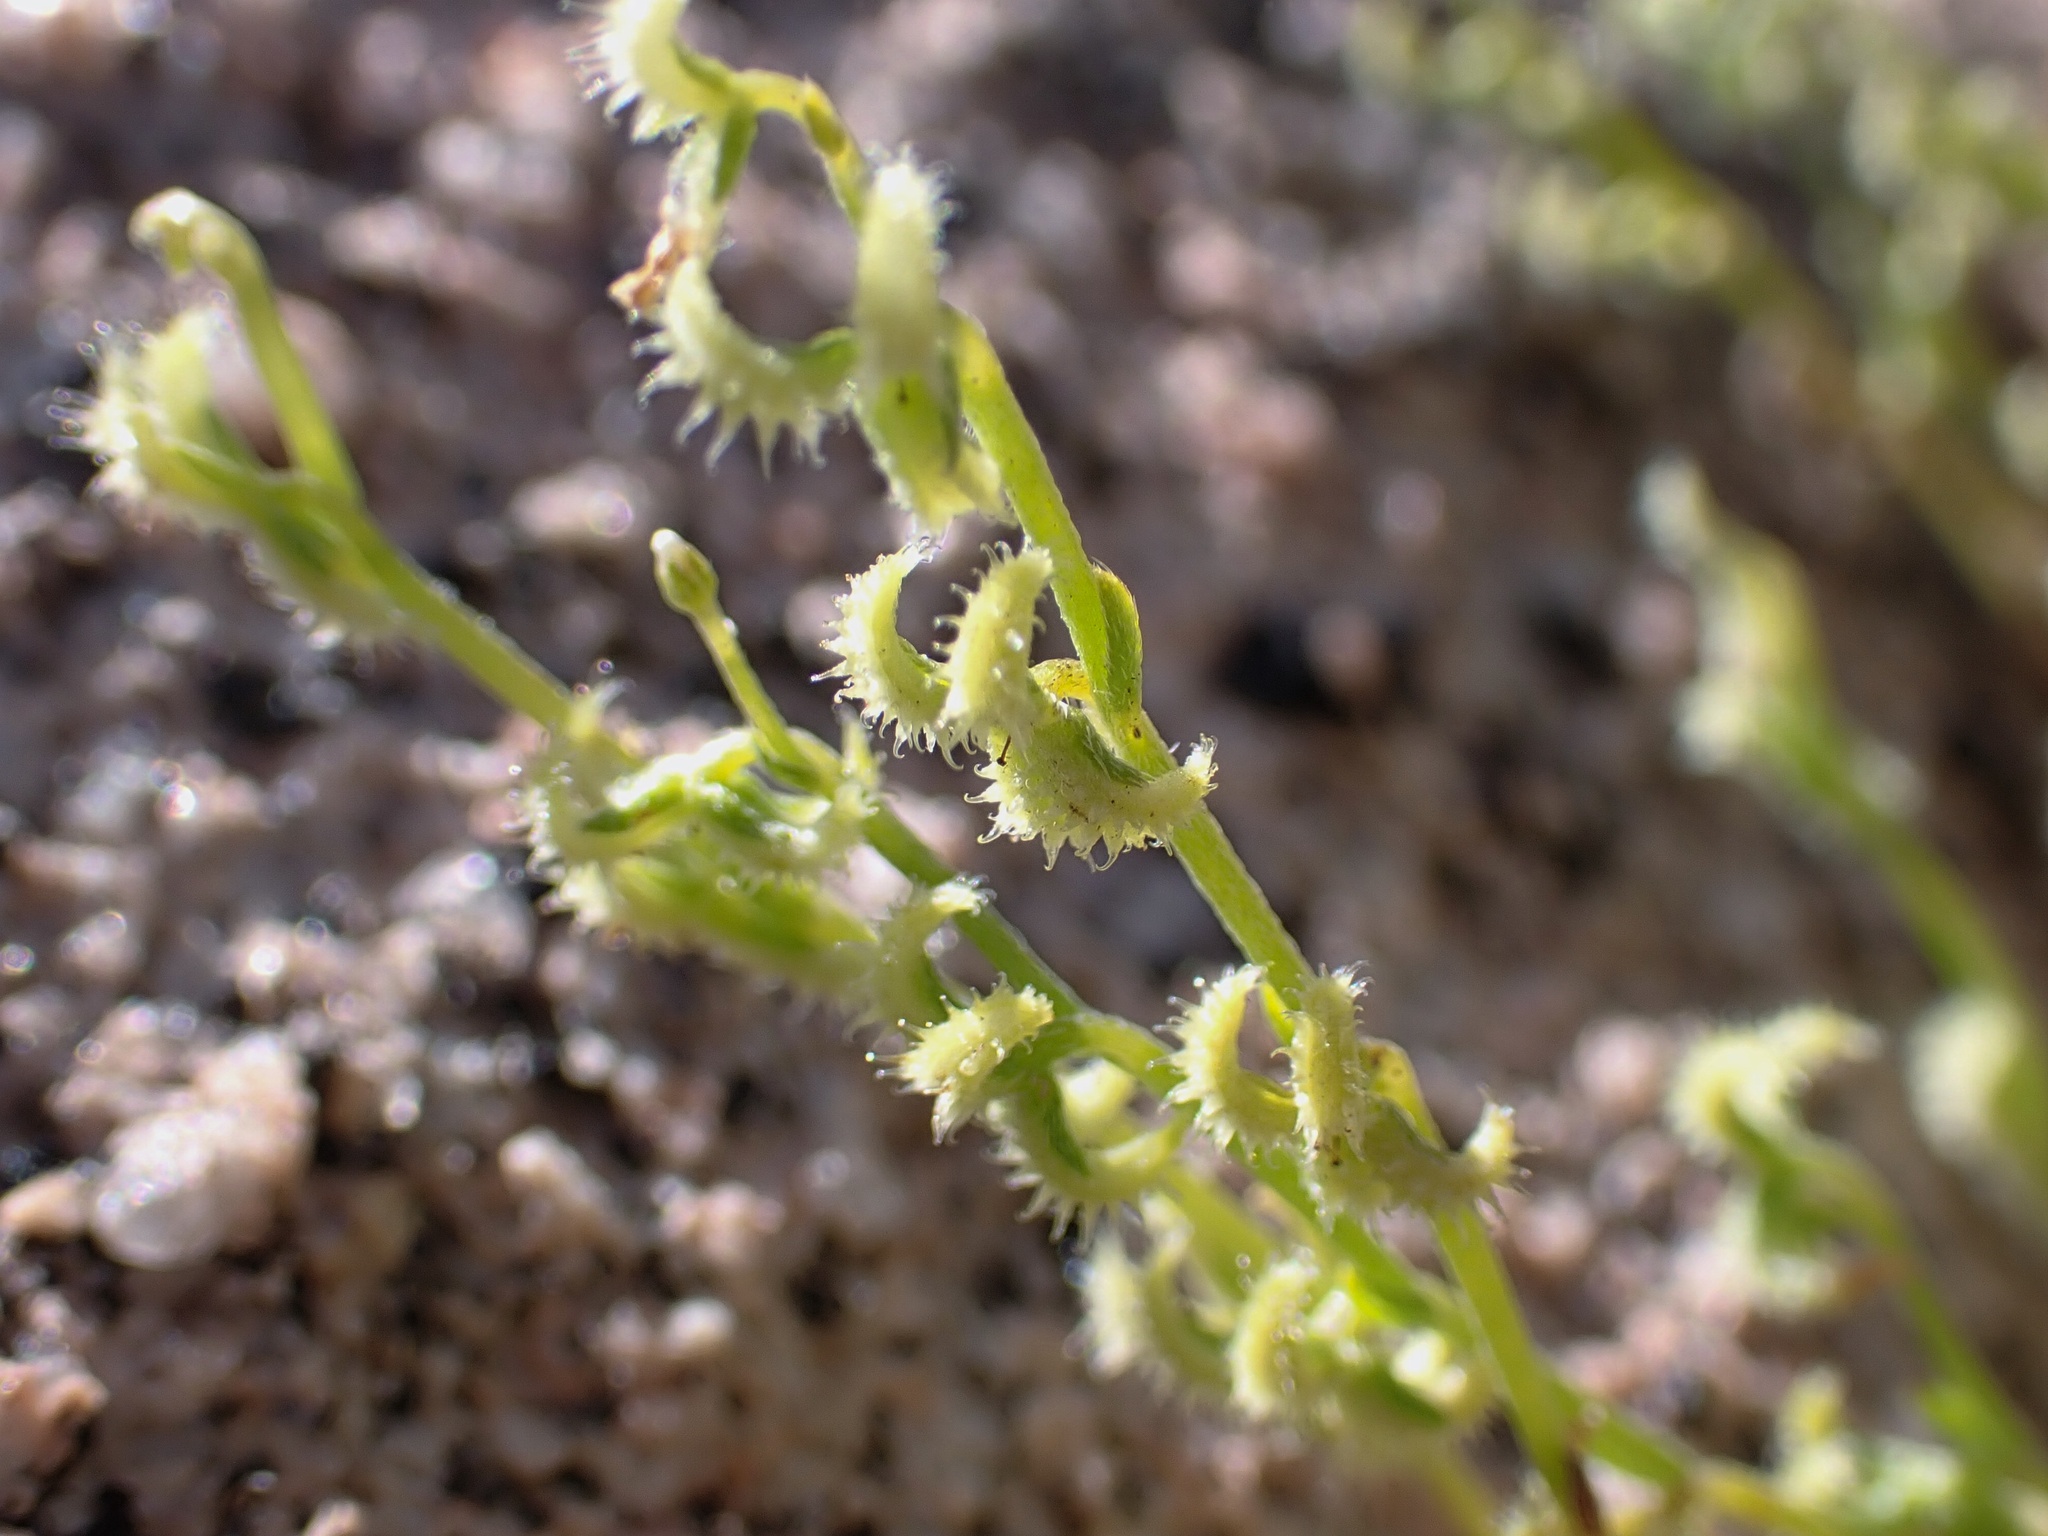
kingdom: Plantae
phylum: Tracheophyta
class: Magnoliopsida
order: Boraginales
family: Boraginaceae
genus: Pectocarya
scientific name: Pectocarya recurvata
